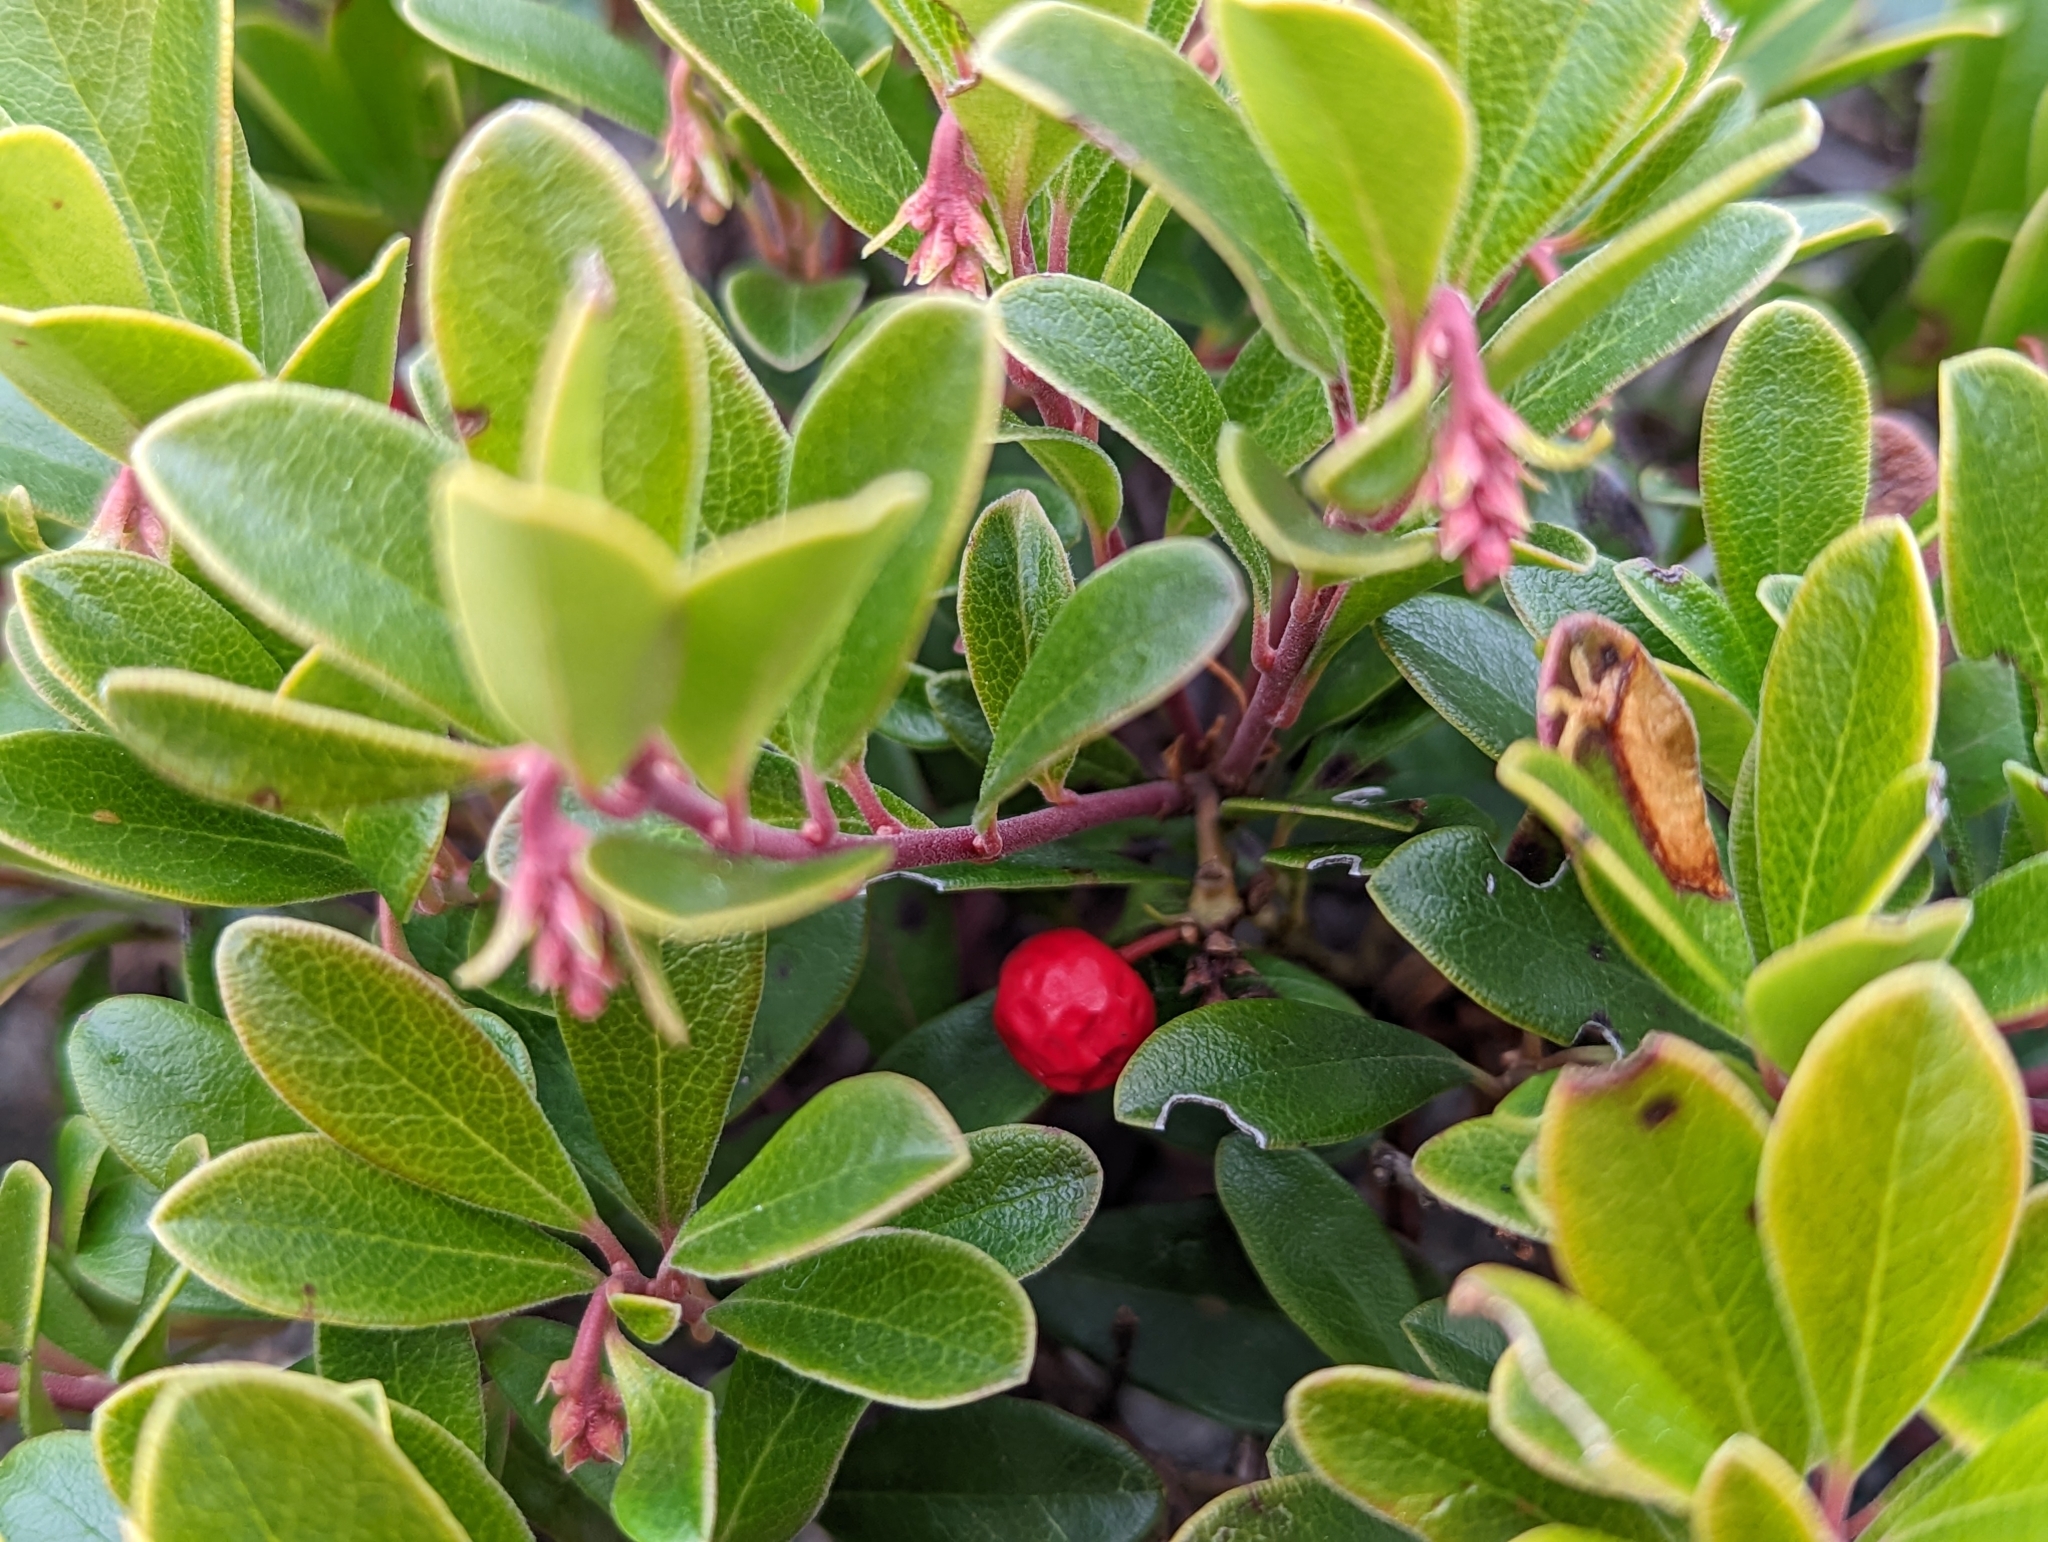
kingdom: Plantae
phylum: Tracheophyta
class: Magnoliopsida
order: Ericales
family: Ericaceae
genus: Arctostaphylos
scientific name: Arctostaphylos uva-ursi
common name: Bearberry
